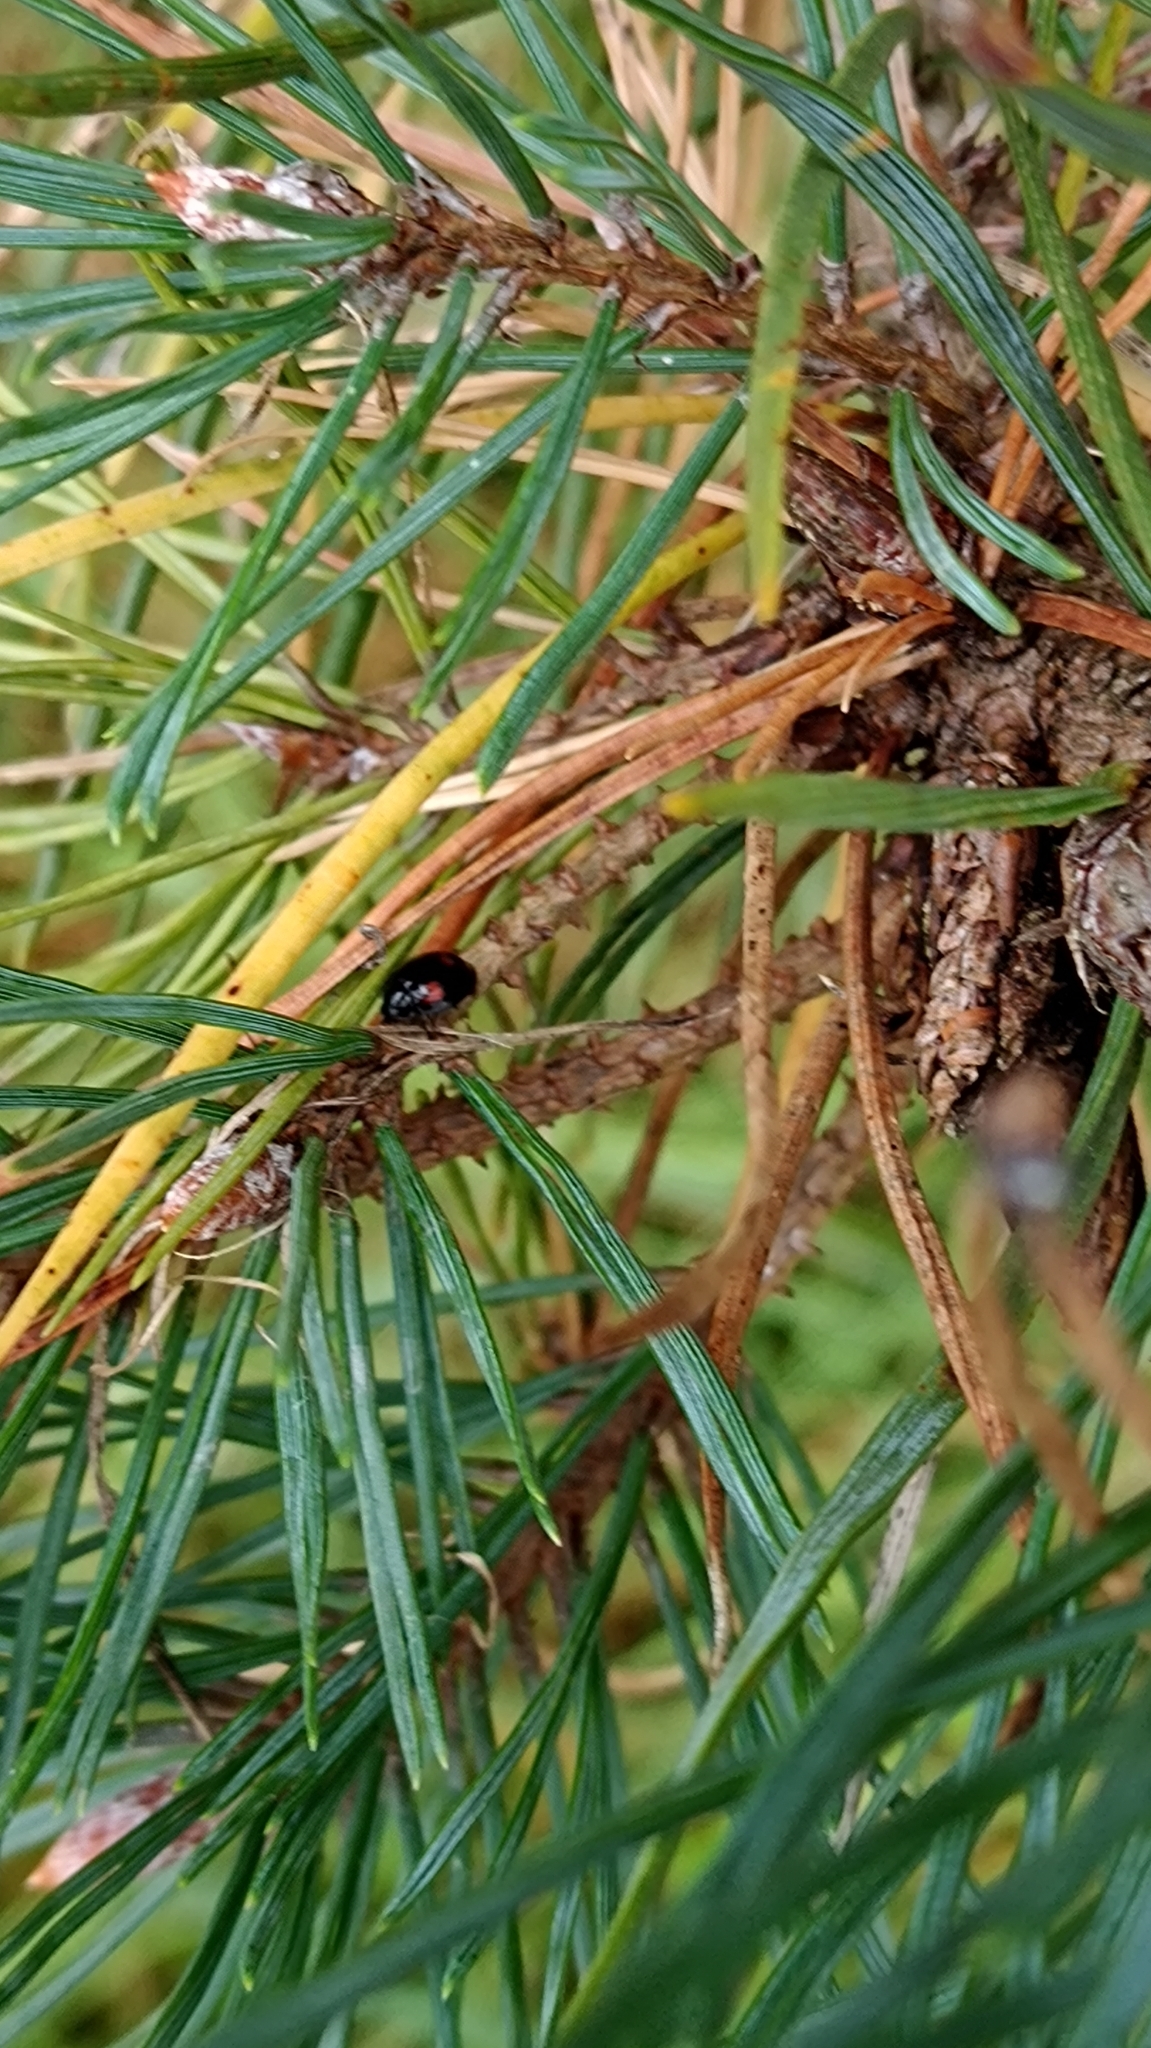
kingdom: Animalia
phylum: Arthropoda
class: Insecta
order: Coleoptera
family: Coccinellidae
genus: Brumus
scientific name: Brumus quadripustulatus
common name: Ladybird beetle
